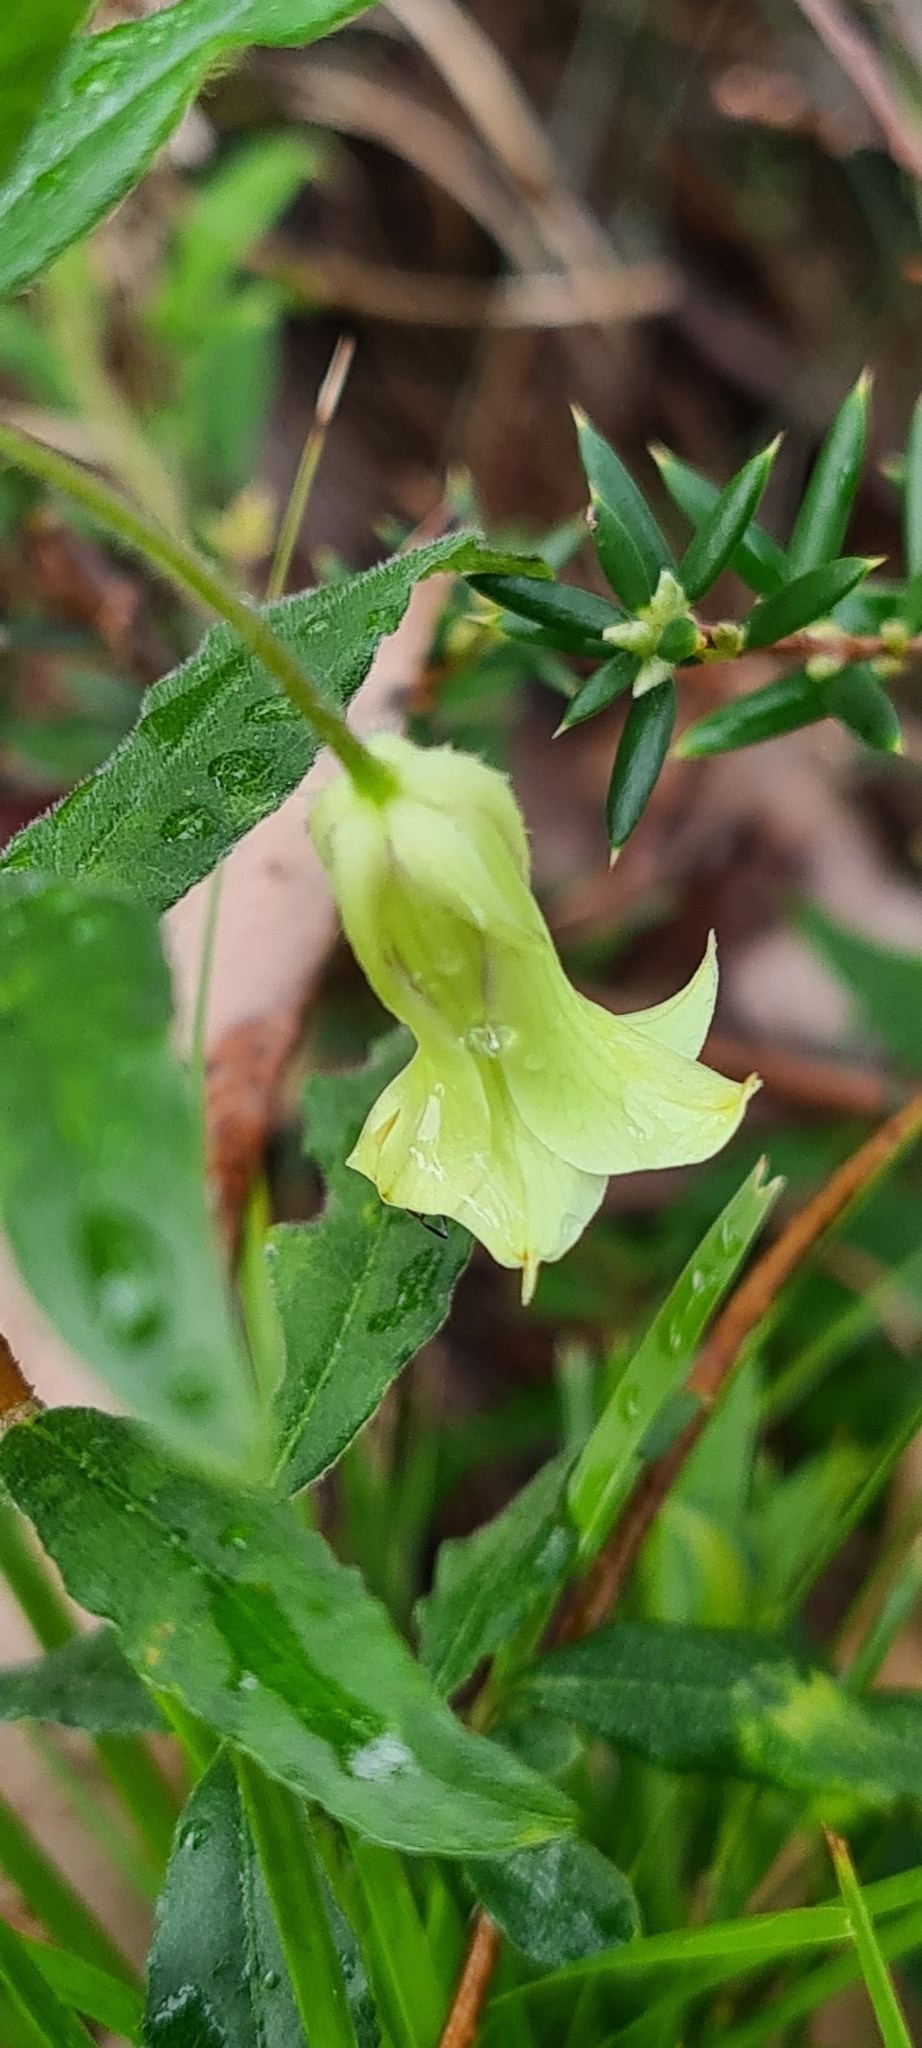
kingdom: Plantae
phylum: Tracheophyta
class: Magnoliopsida
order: Apiales
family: Pittosporaceae
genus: Billardiera
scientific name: Billardiera scandens
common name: Apple-berry
